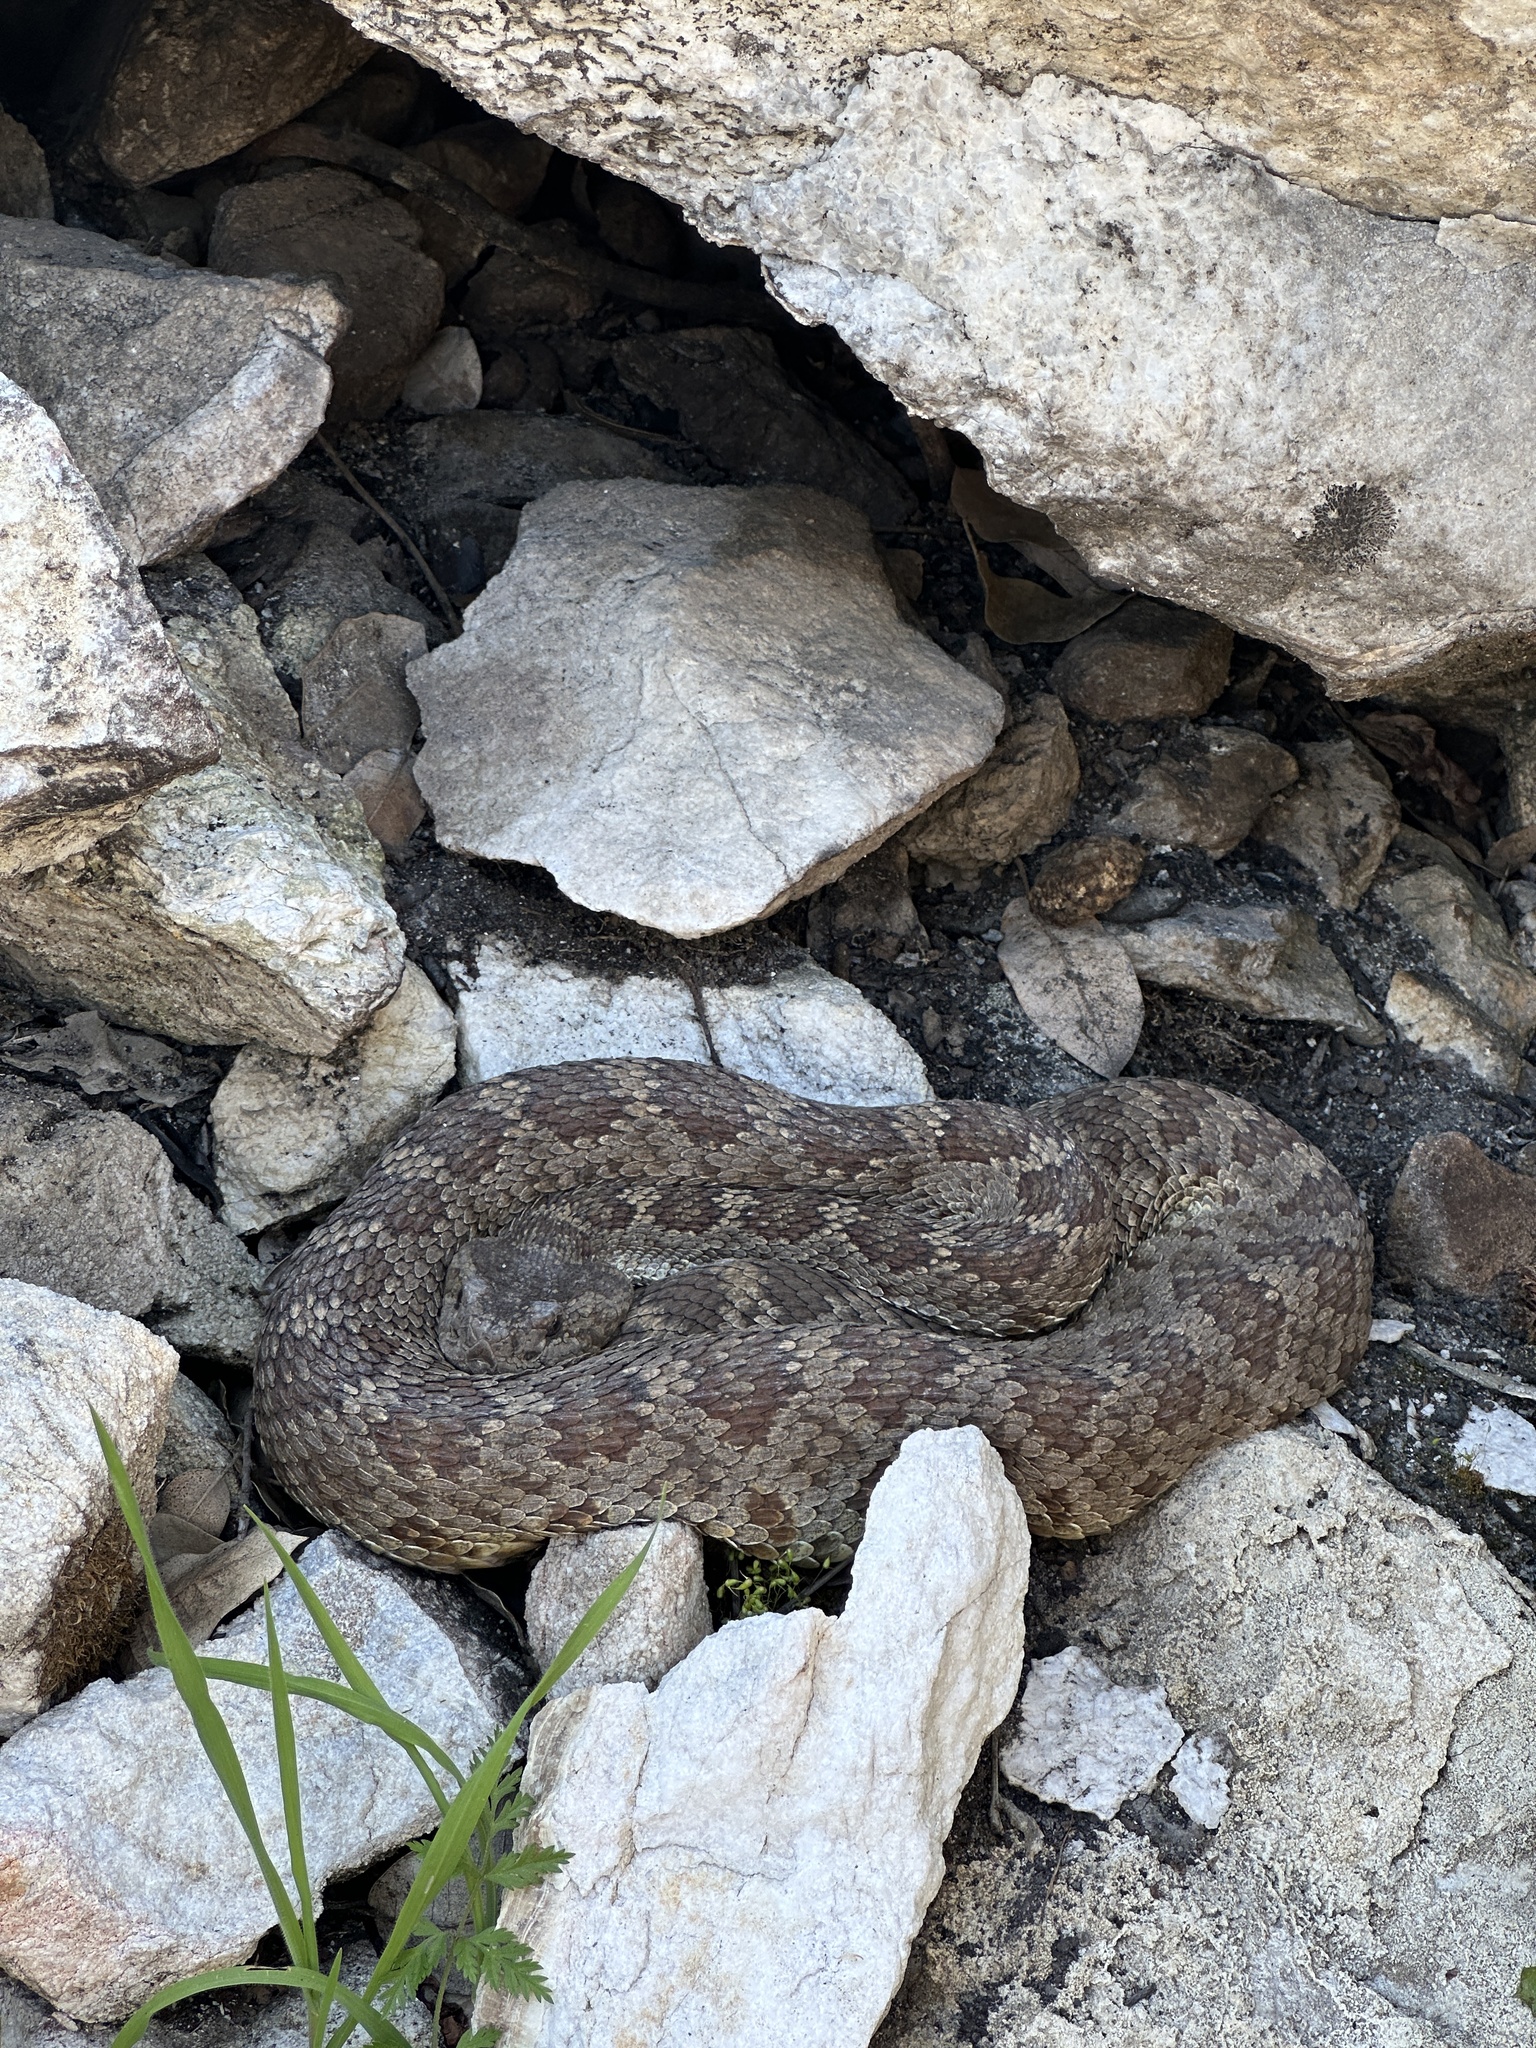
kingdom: Animalia
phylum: Chordata
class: Squamata
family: Viperidae
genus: Crotalus
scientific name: Crotalus oreganus
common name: Abyssus
